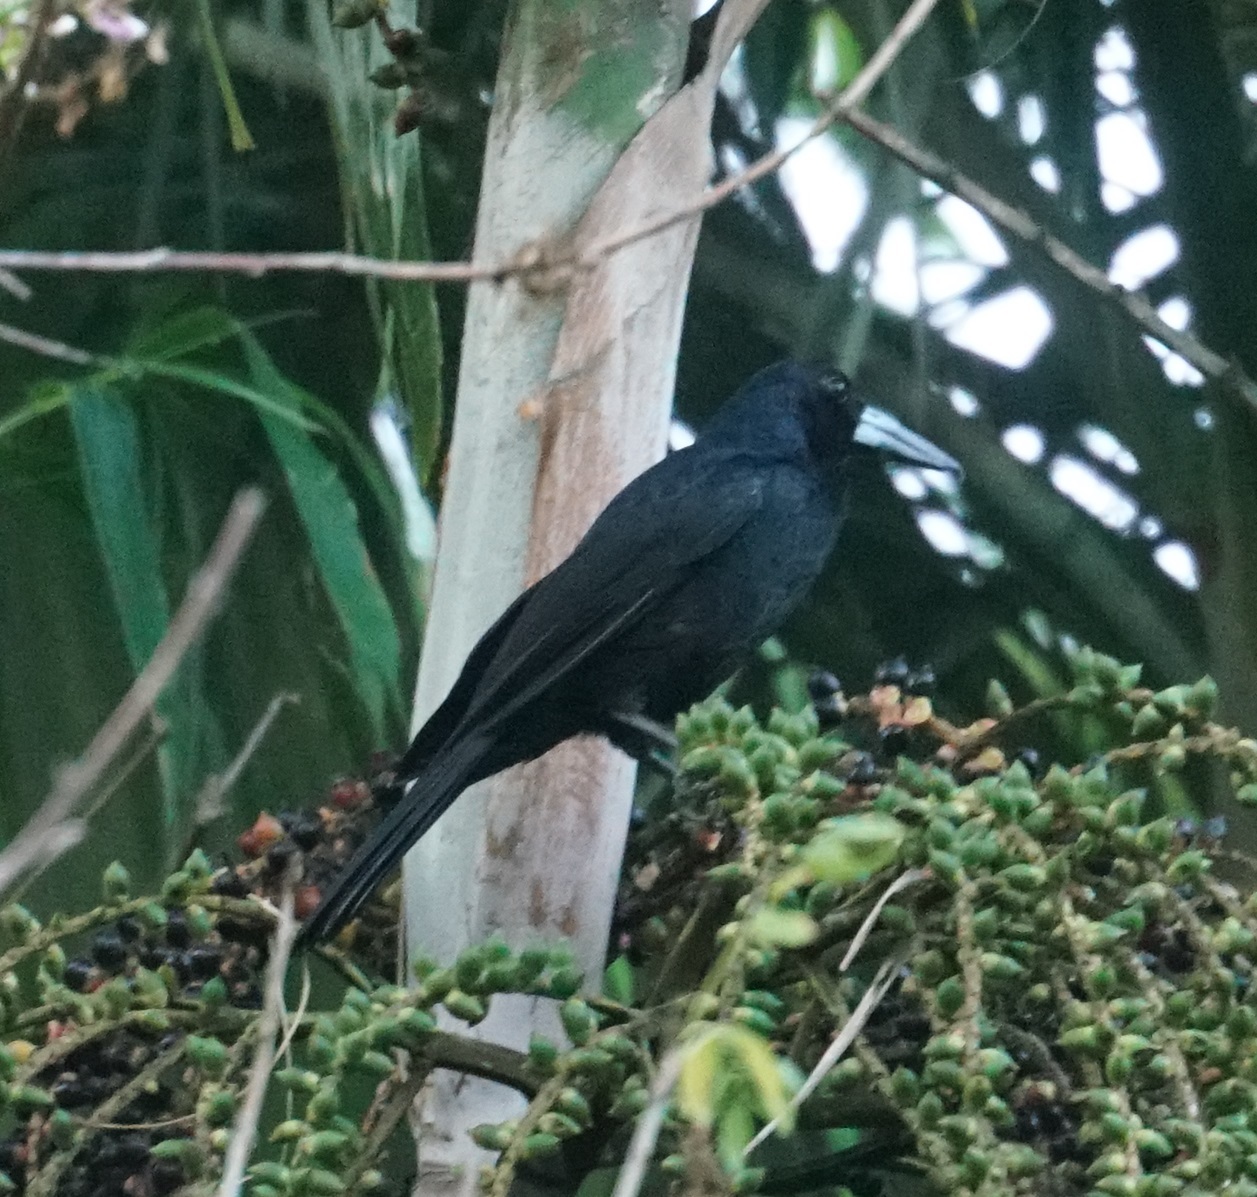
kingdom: Animalia
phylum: Chordata
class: Aves
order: Passeriformes
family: Artamidae
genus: Melloria
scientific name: Melloria quoyi
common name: Black butcherbird
